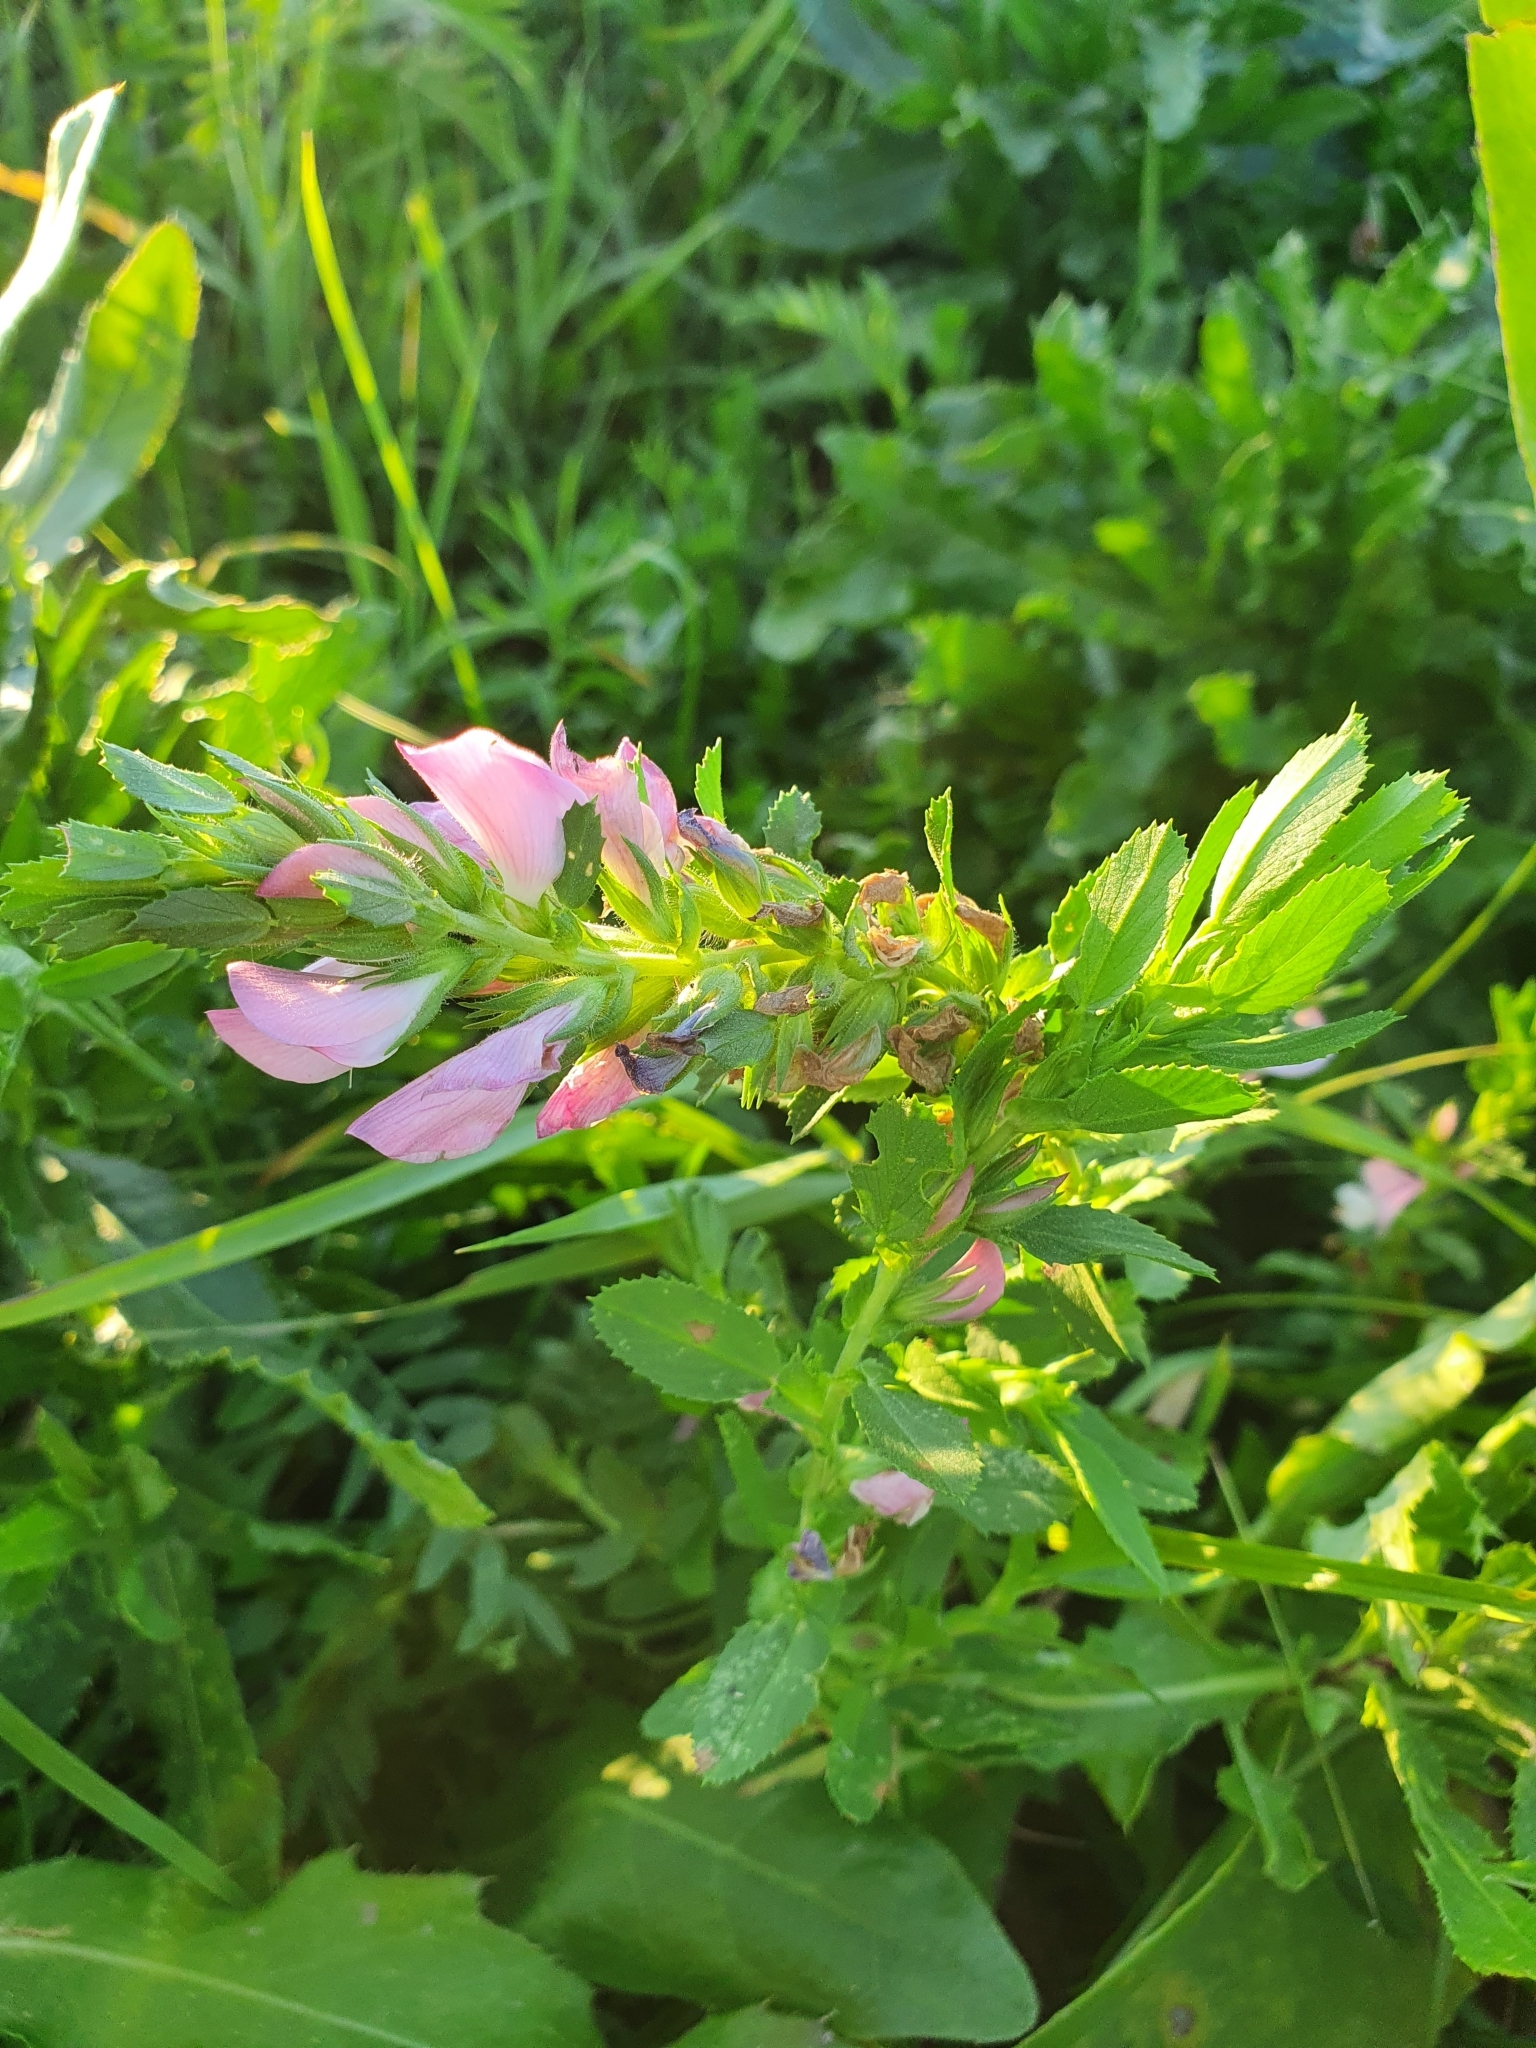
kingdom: Plantae
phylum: Tracheophyta
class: Magnoliopsida
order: Fabales
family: Fabaceae
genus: Ononis
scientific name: Ononis arvensis
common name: Field restharrow
